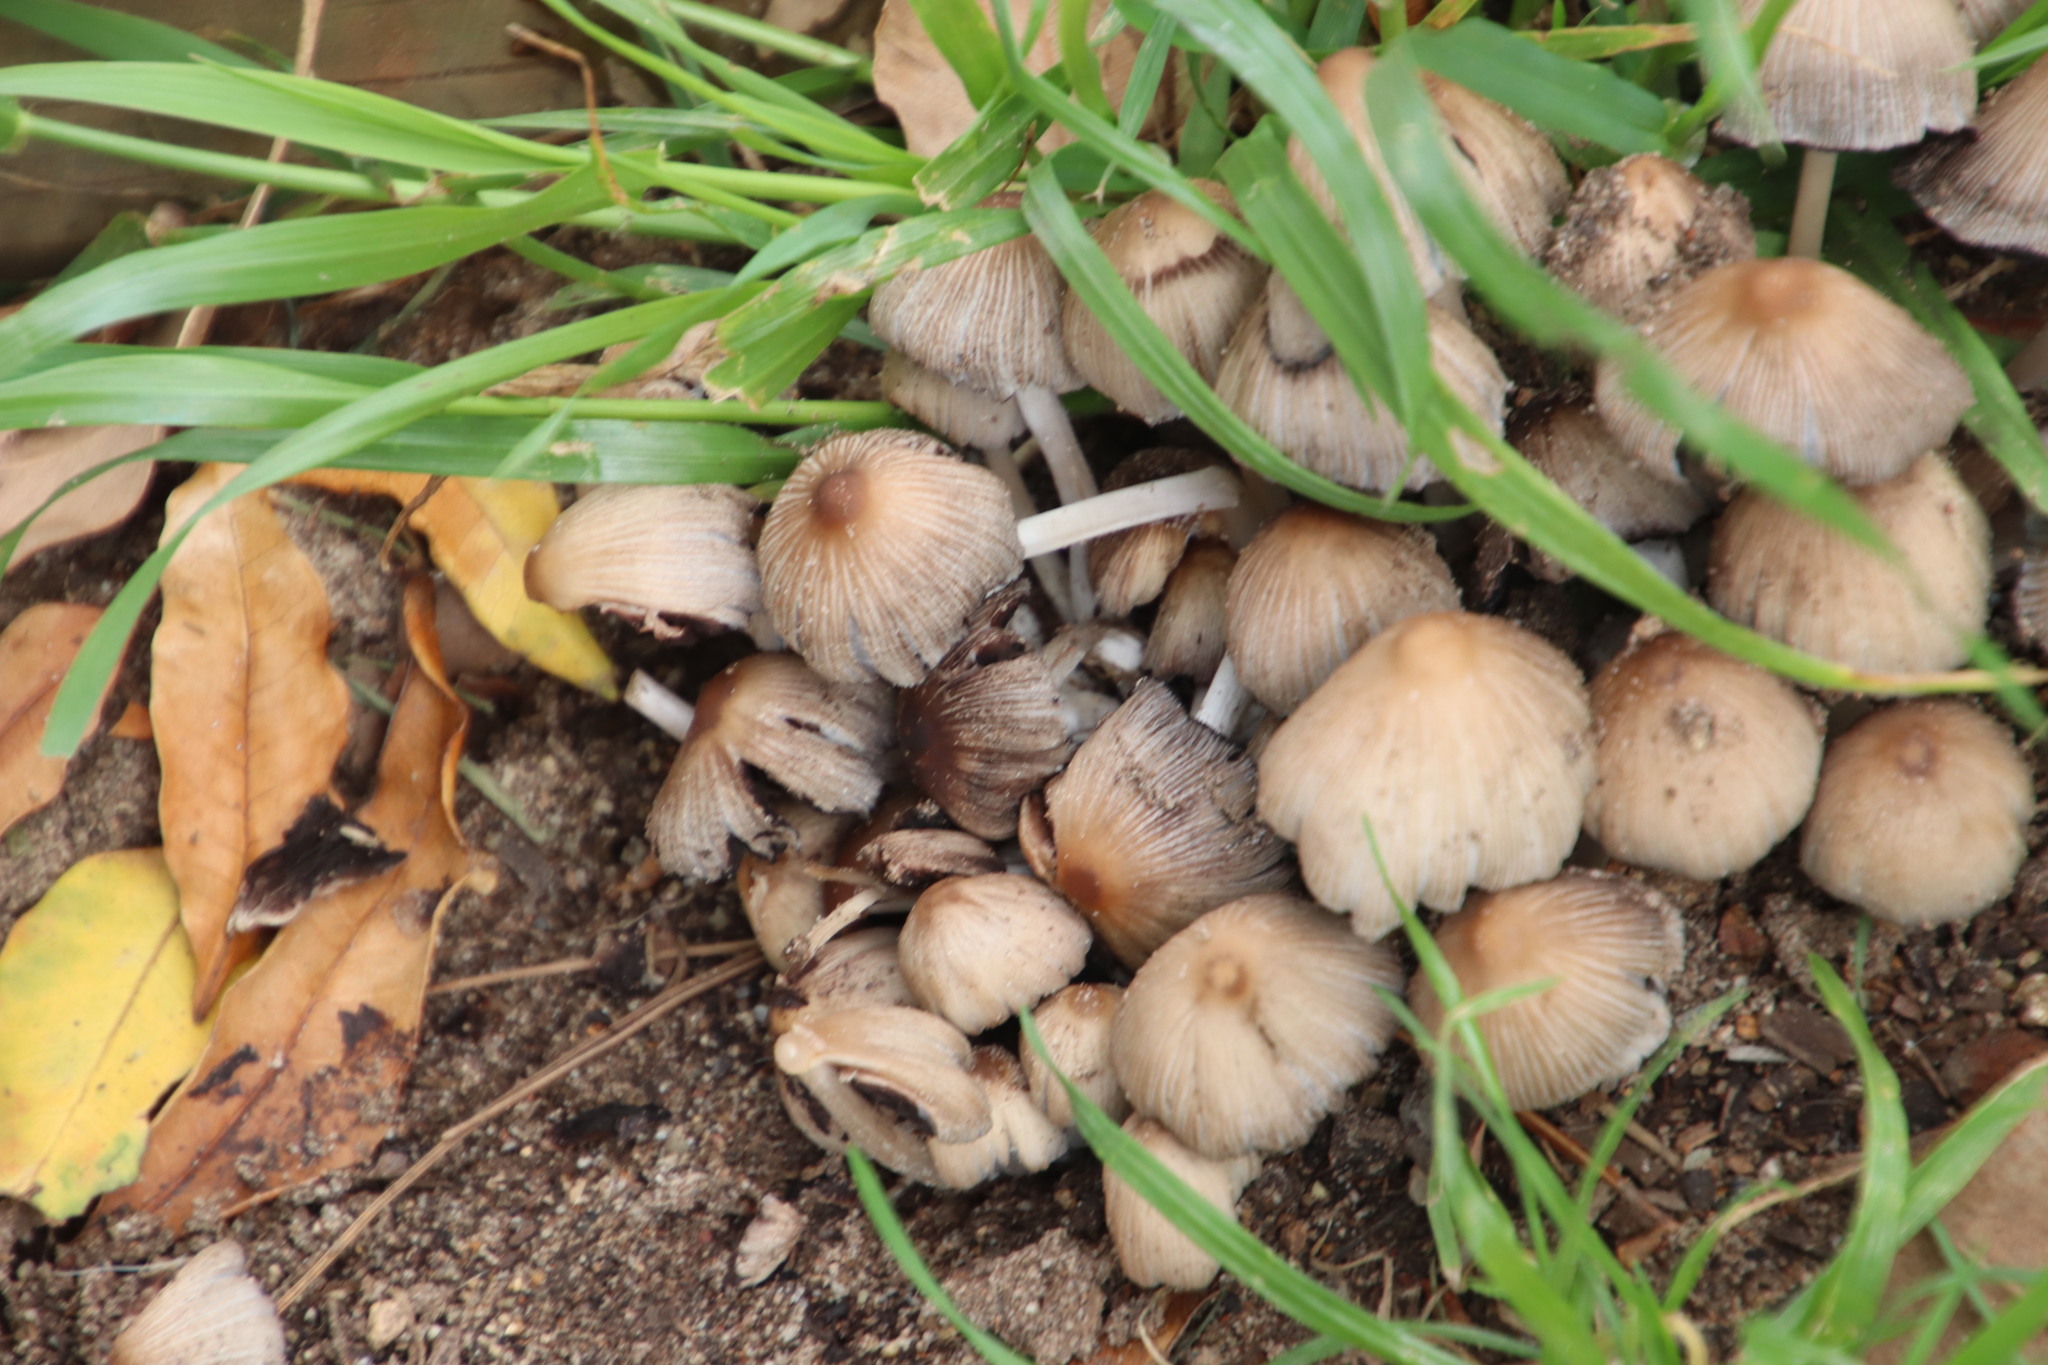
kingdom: Fungi
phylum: Basidiomycota
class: Agaricomycetes
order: Agaricales
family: Psathyrellaceae
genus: Coprinellus
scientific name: Coprinellus micaceus
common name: Glistening ink-cap
